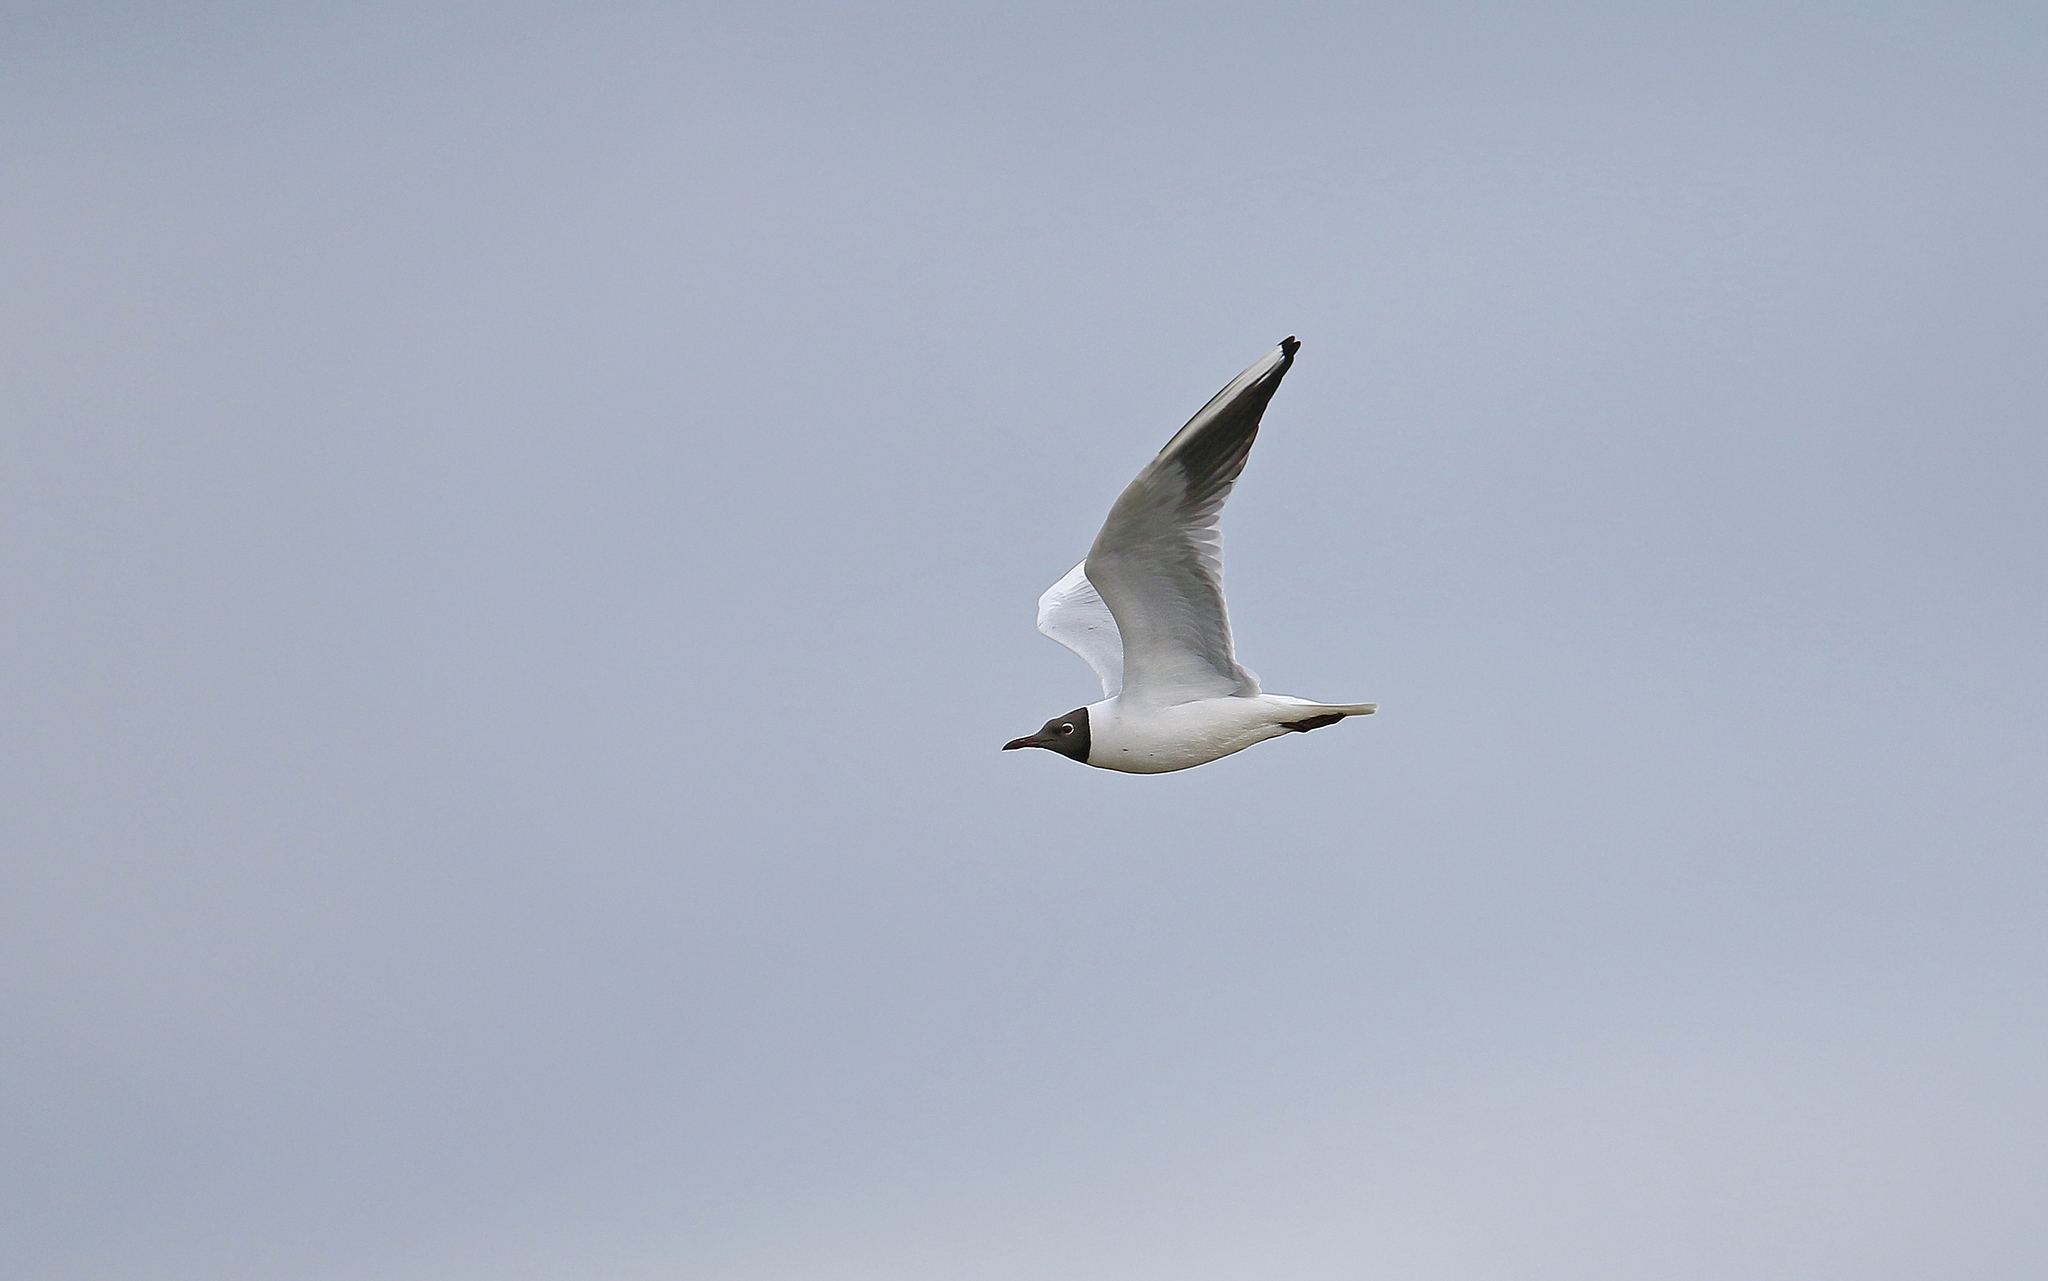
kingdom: Animalia
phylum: Chordata
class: Aves
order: Charadriiformes
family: Laridae
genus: Chroicocephalus
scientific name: Chroicocephalus ridibundus
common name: Black-headed gull
